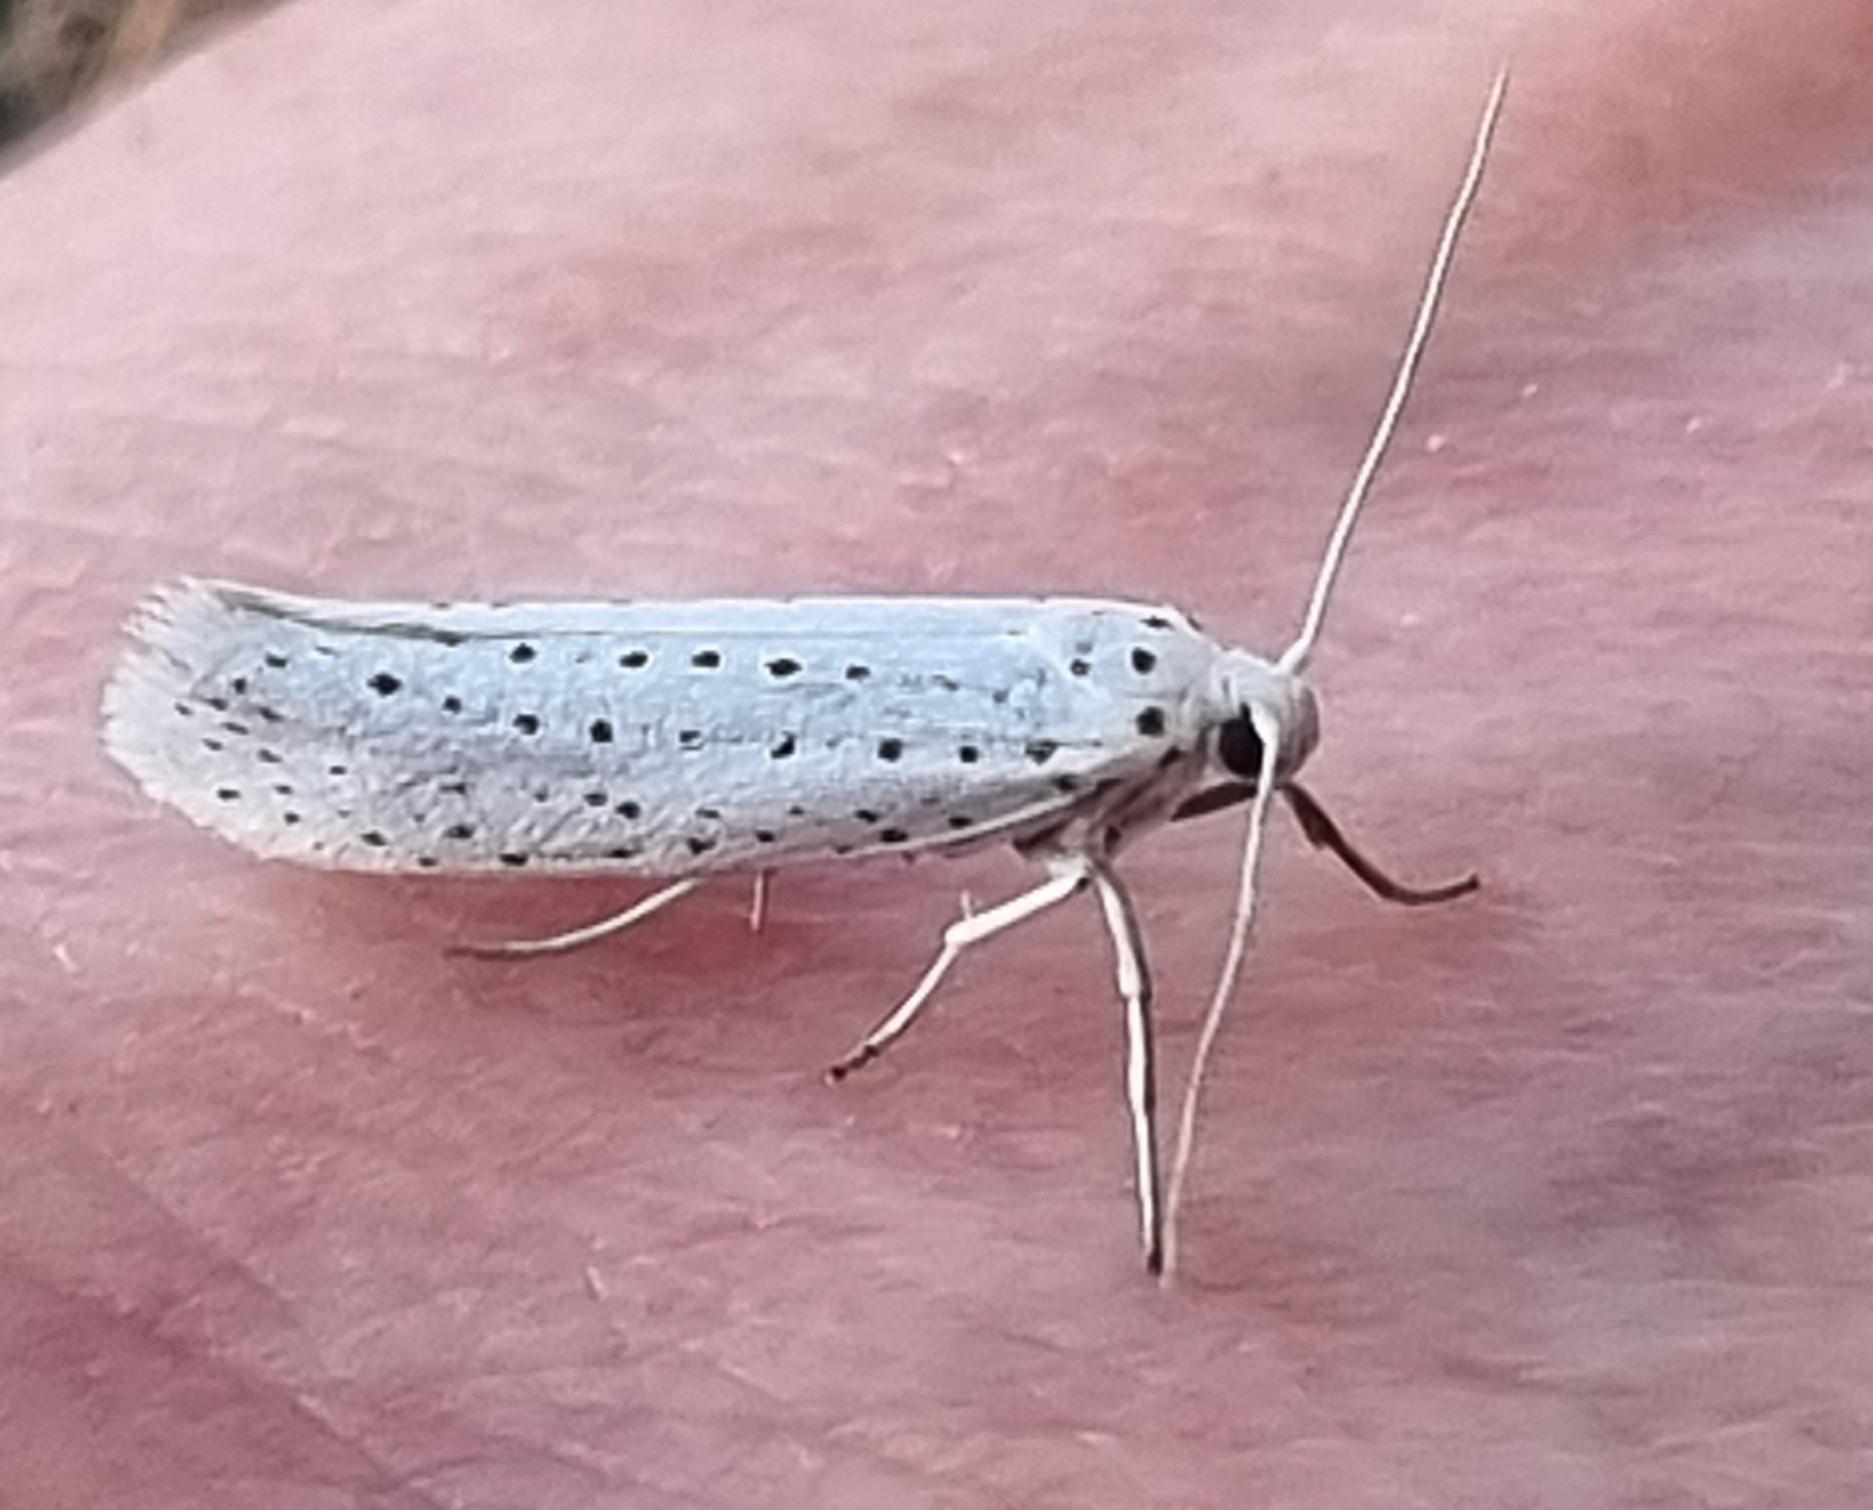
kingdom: Animalia
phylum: Arthropoda
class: Insecta
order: Lepidoptera
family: Yponomeutidae
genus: Yponomeuta
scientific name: Yponomeuta evonymella
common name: Bird-cherry ermine
